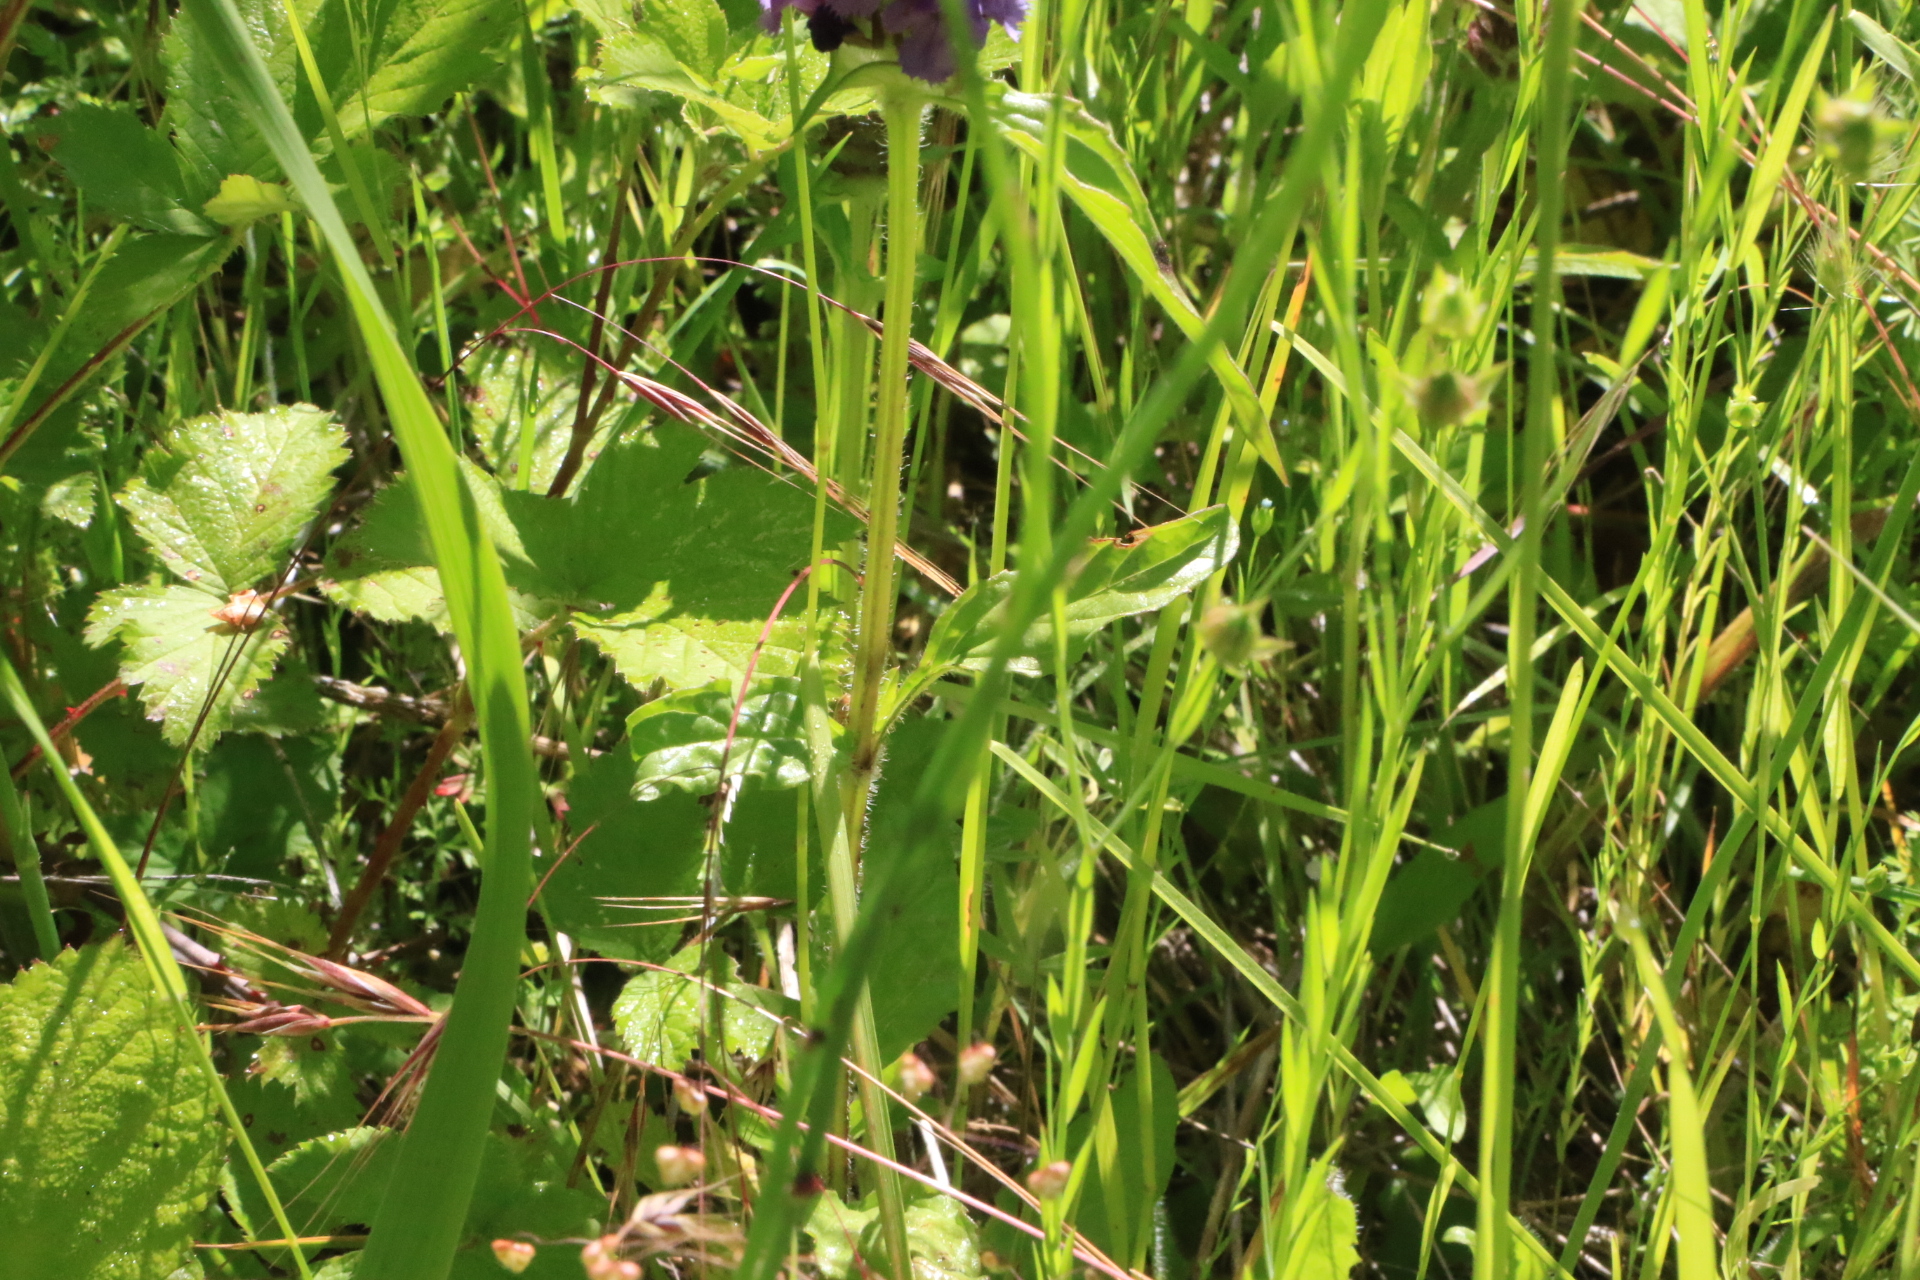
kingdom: Plantae
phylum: Tracheophyta
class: Magnoliopsida
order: Lamiales
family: Lamiaceae
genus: Prunella
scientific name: Prunella vulgaris
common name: Heal-all
